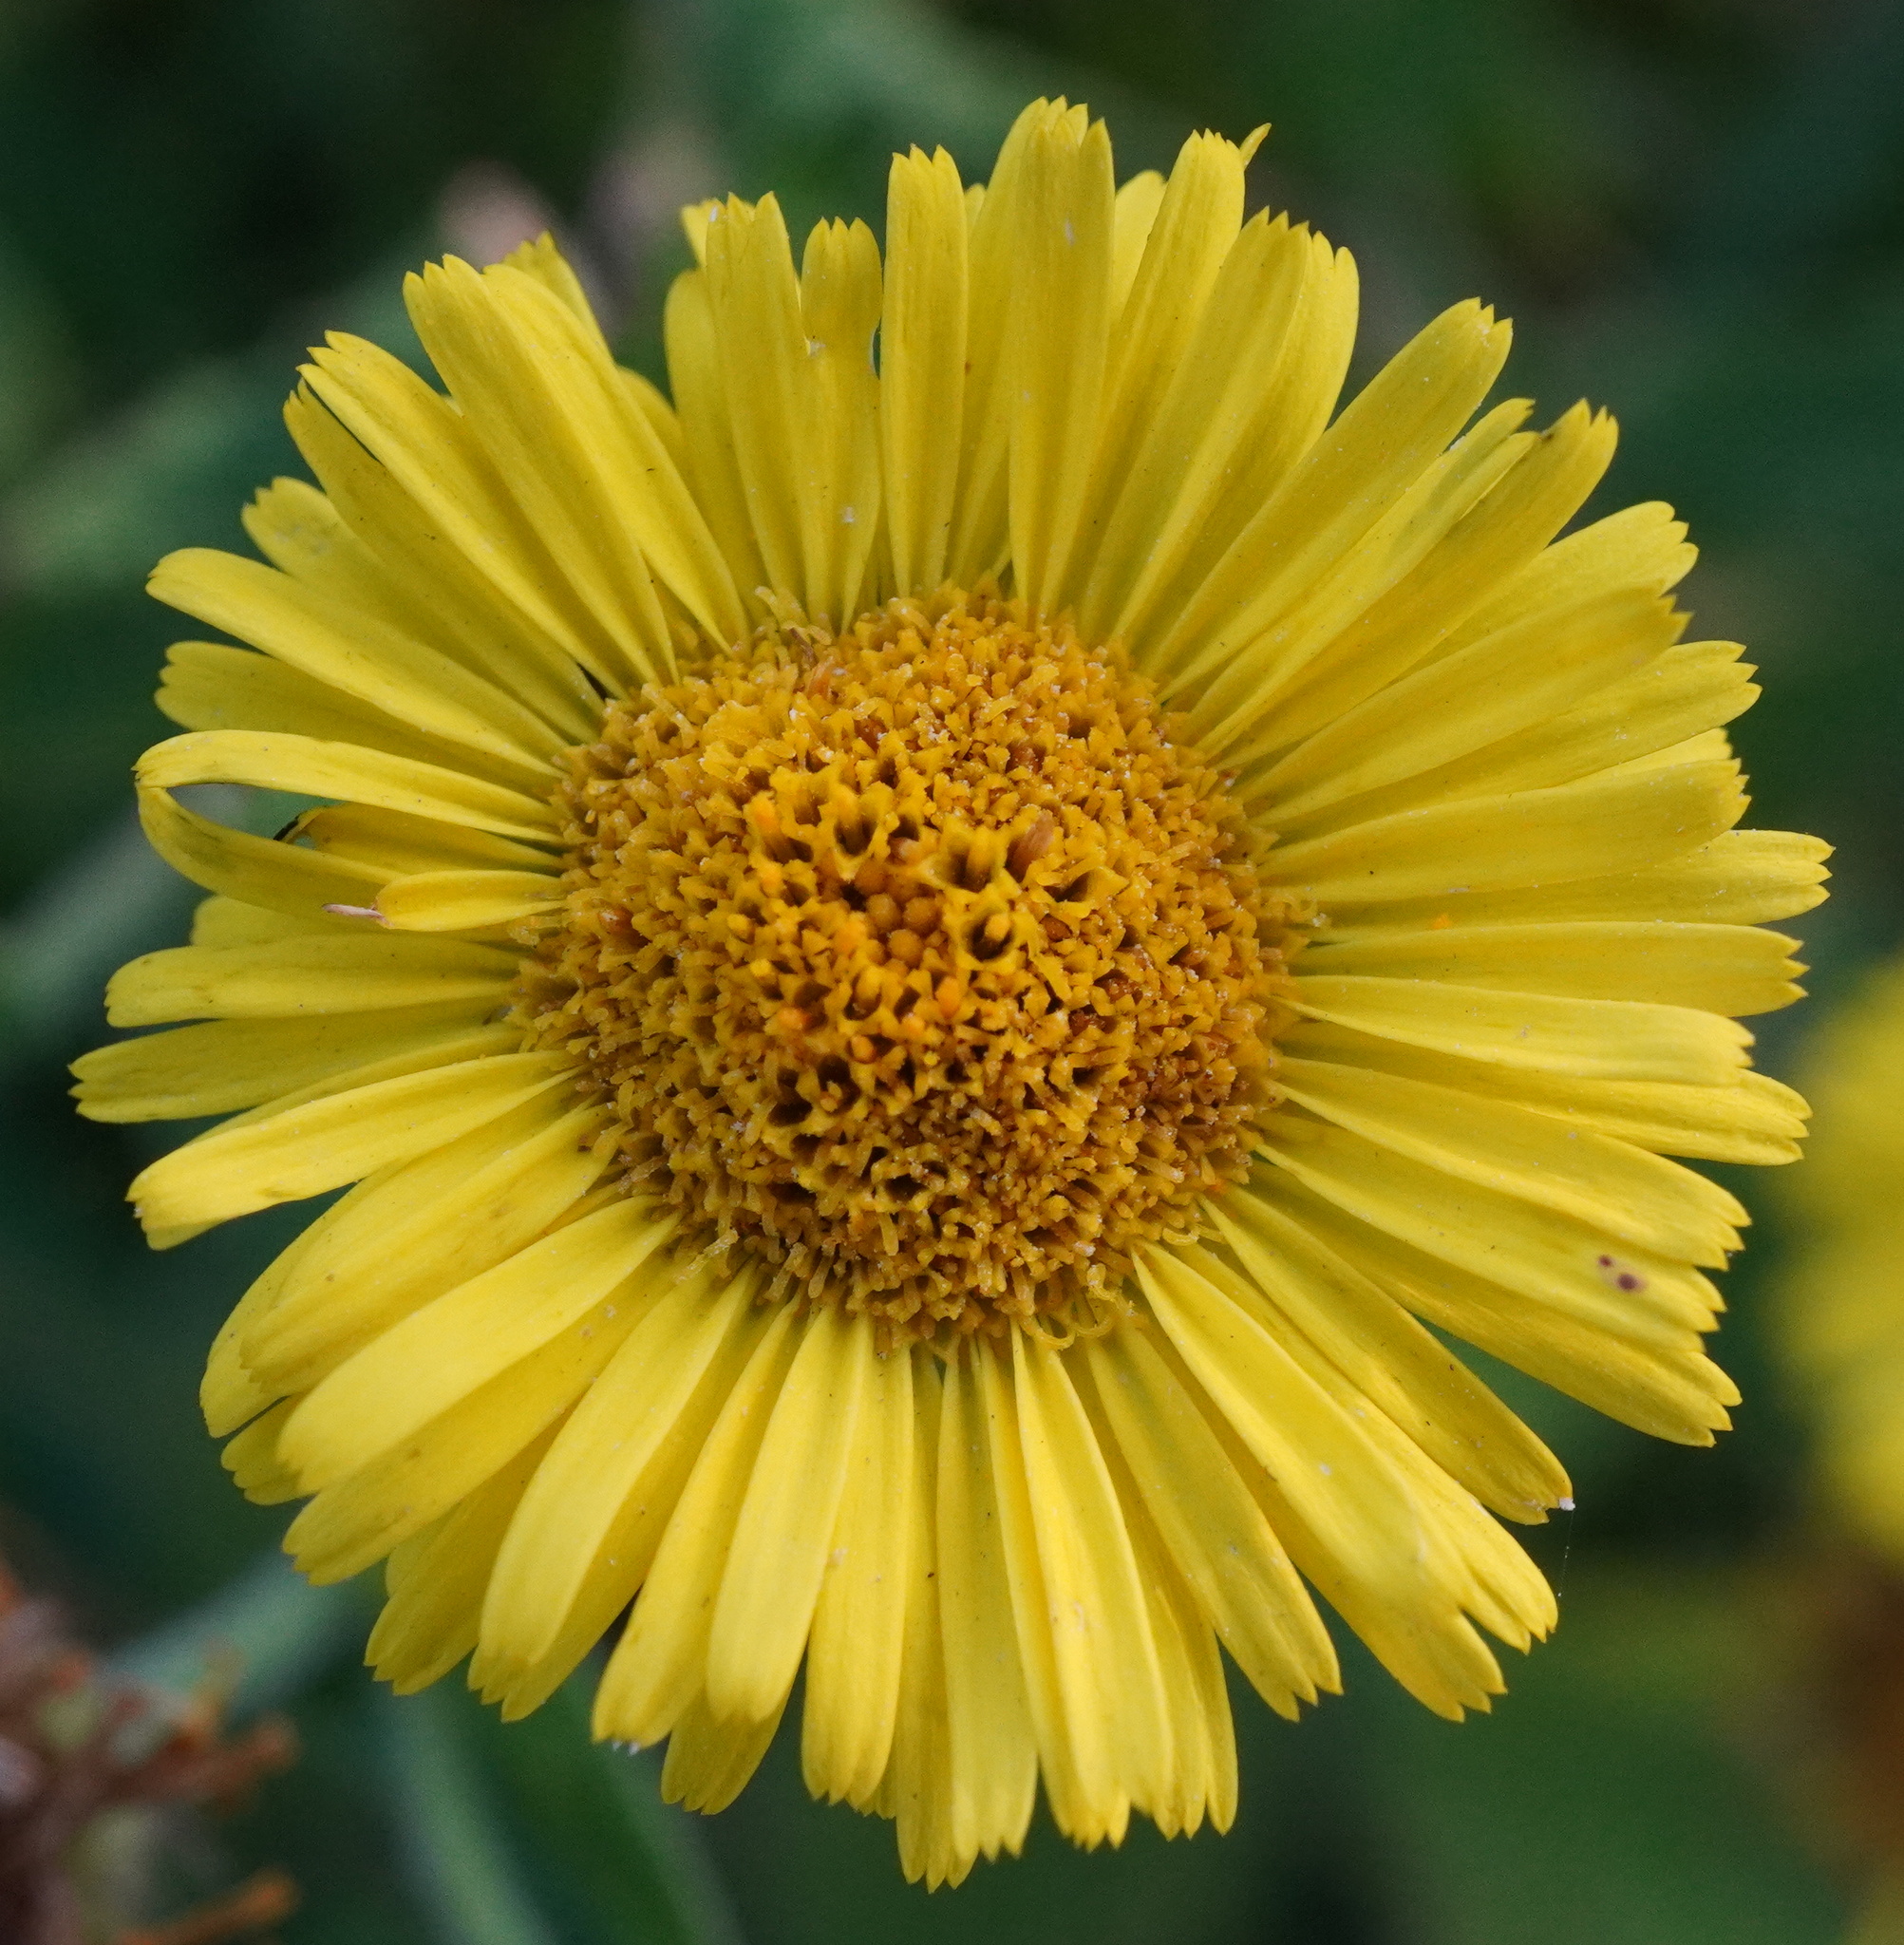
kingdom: Plantae
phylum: Tracheophyta
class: Magnoliopsida
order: Asterales
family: Asteraceae
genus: Pulicaria
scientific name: Pulicaria dysenterica
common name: Common fleabane
